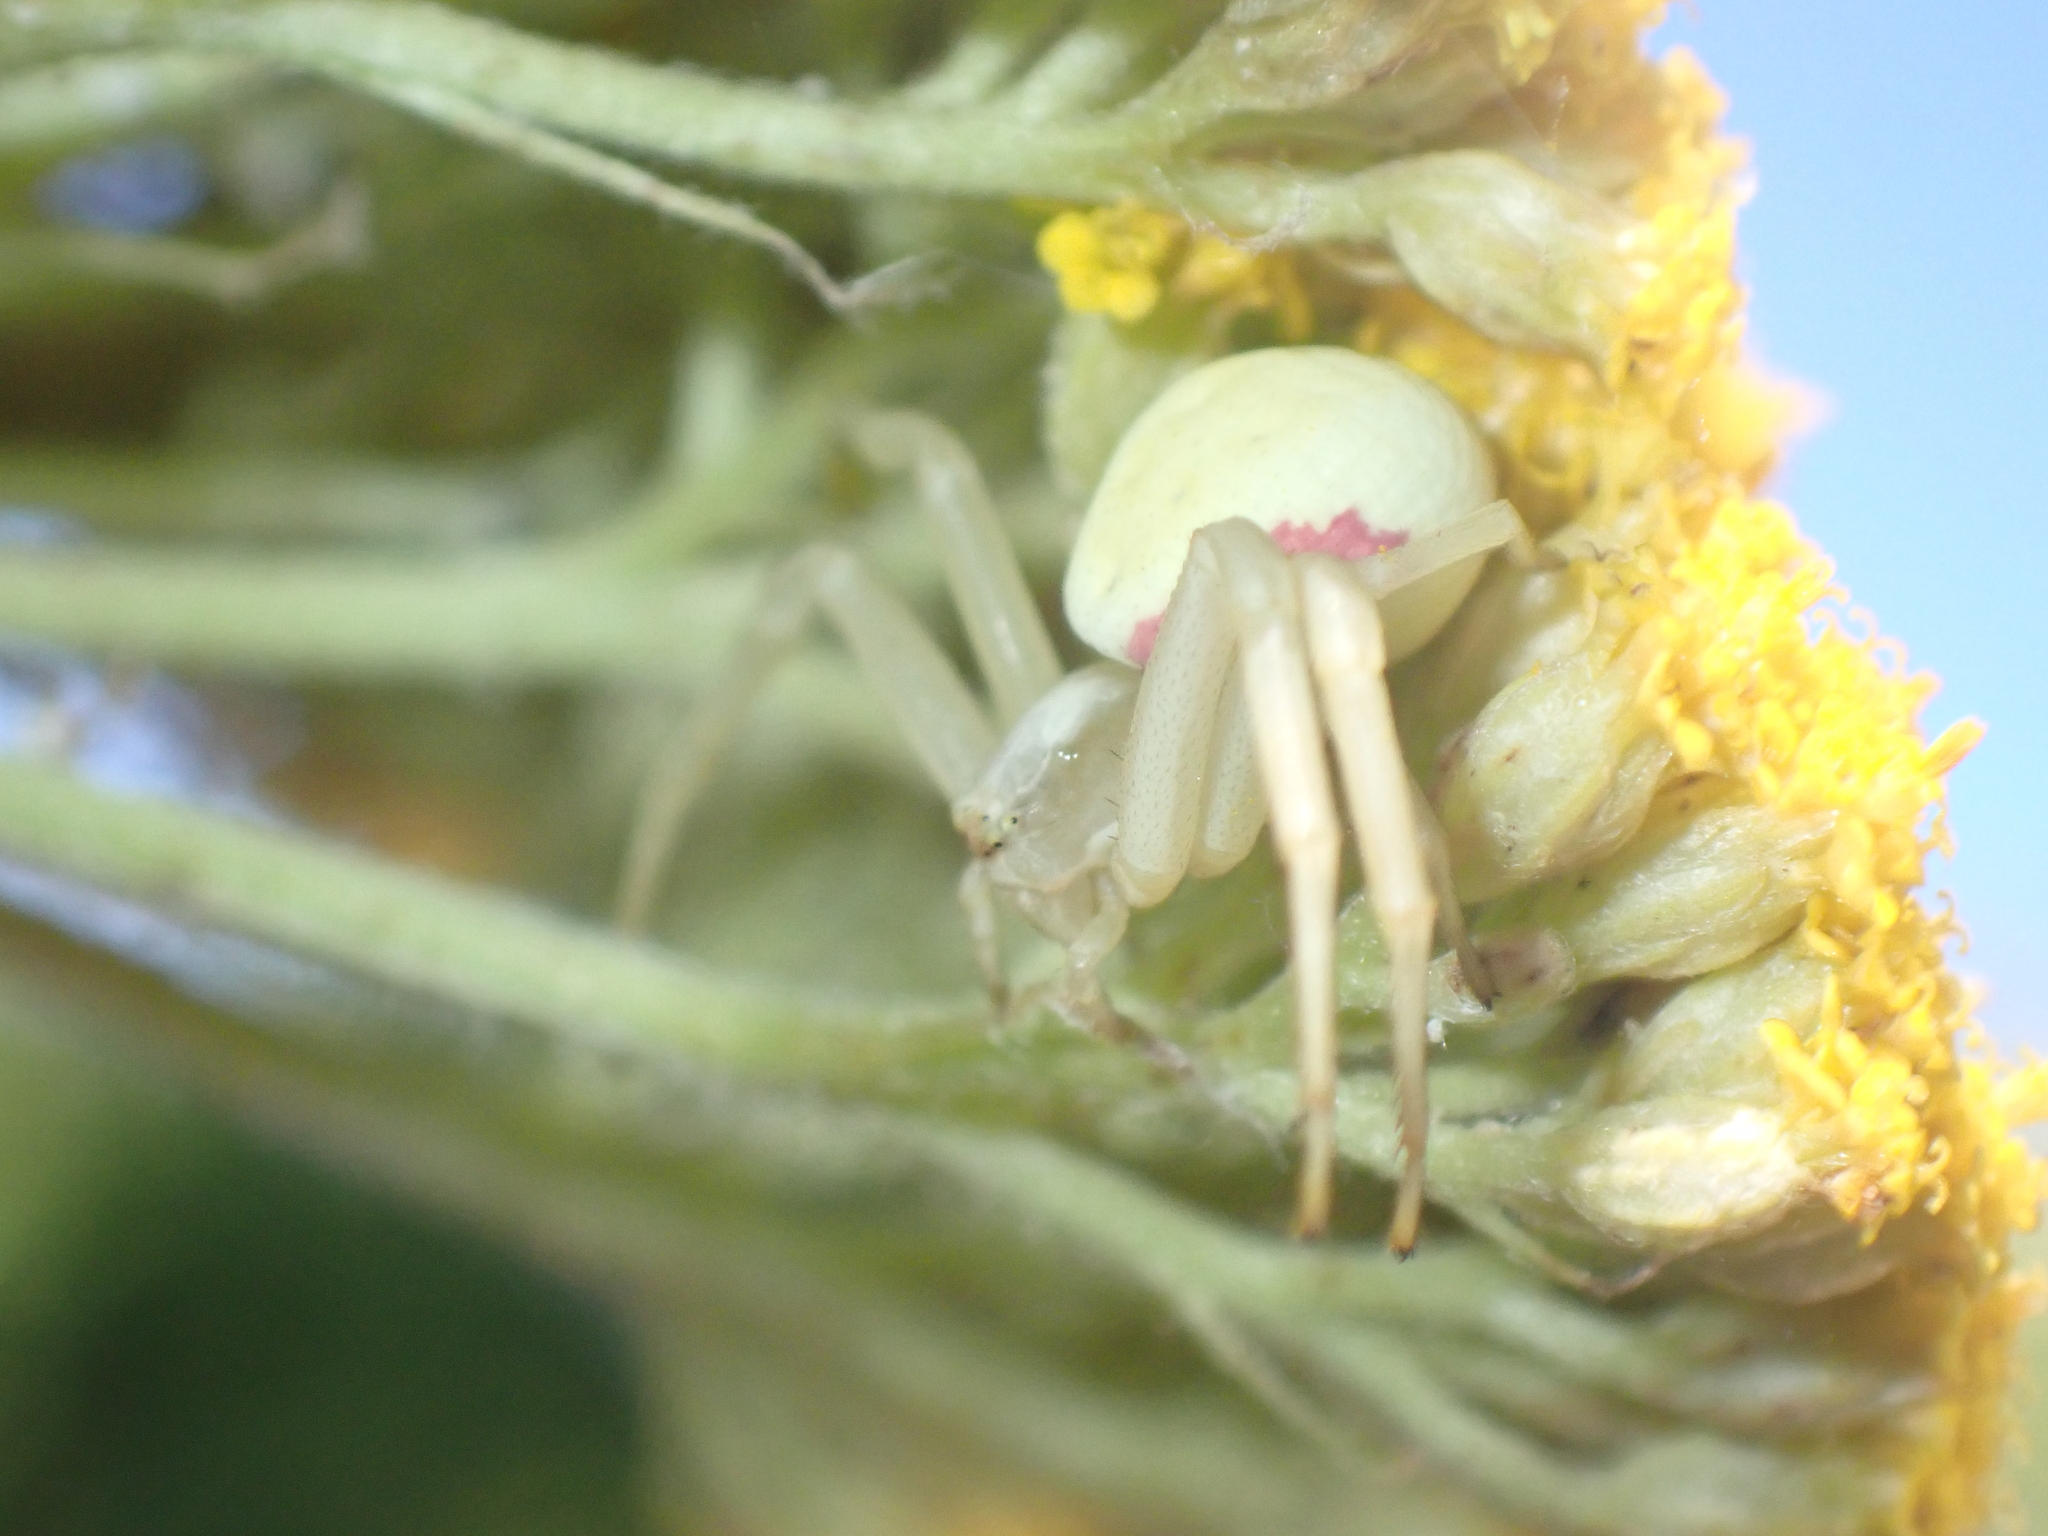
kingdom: Animalia
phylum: Arthropoda
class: Arachnida
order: Araneae
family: Thomisidae
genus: Misumena
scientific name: Misumena vatia
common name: Goldenrod crab spider
